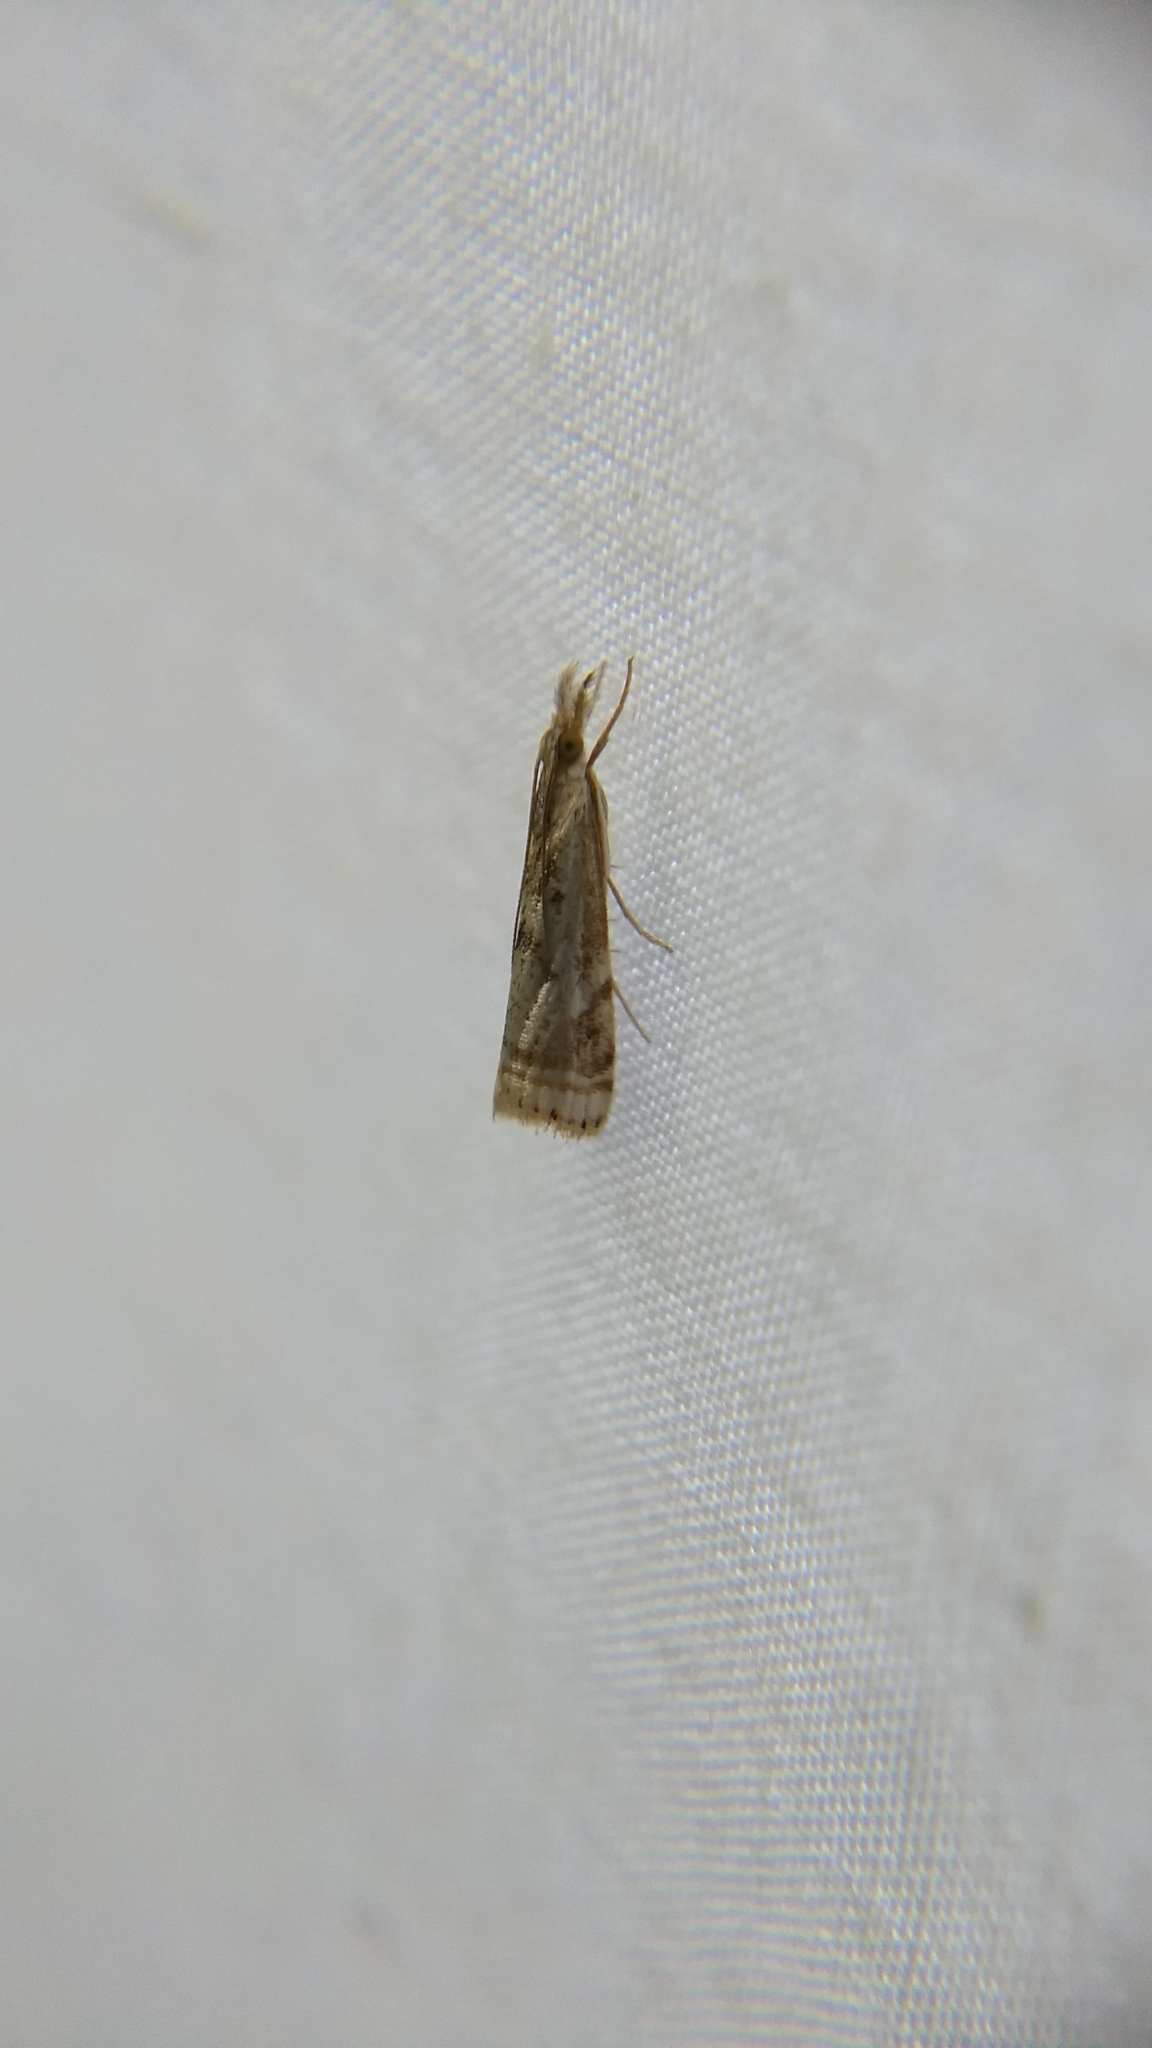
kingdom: Animalia
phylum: Arthropoda
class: Insecta
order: Lepidoptera
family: Crambidae
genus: Microcrambus
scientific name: Microcrambus elegans
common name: Elegant grass-veneer
